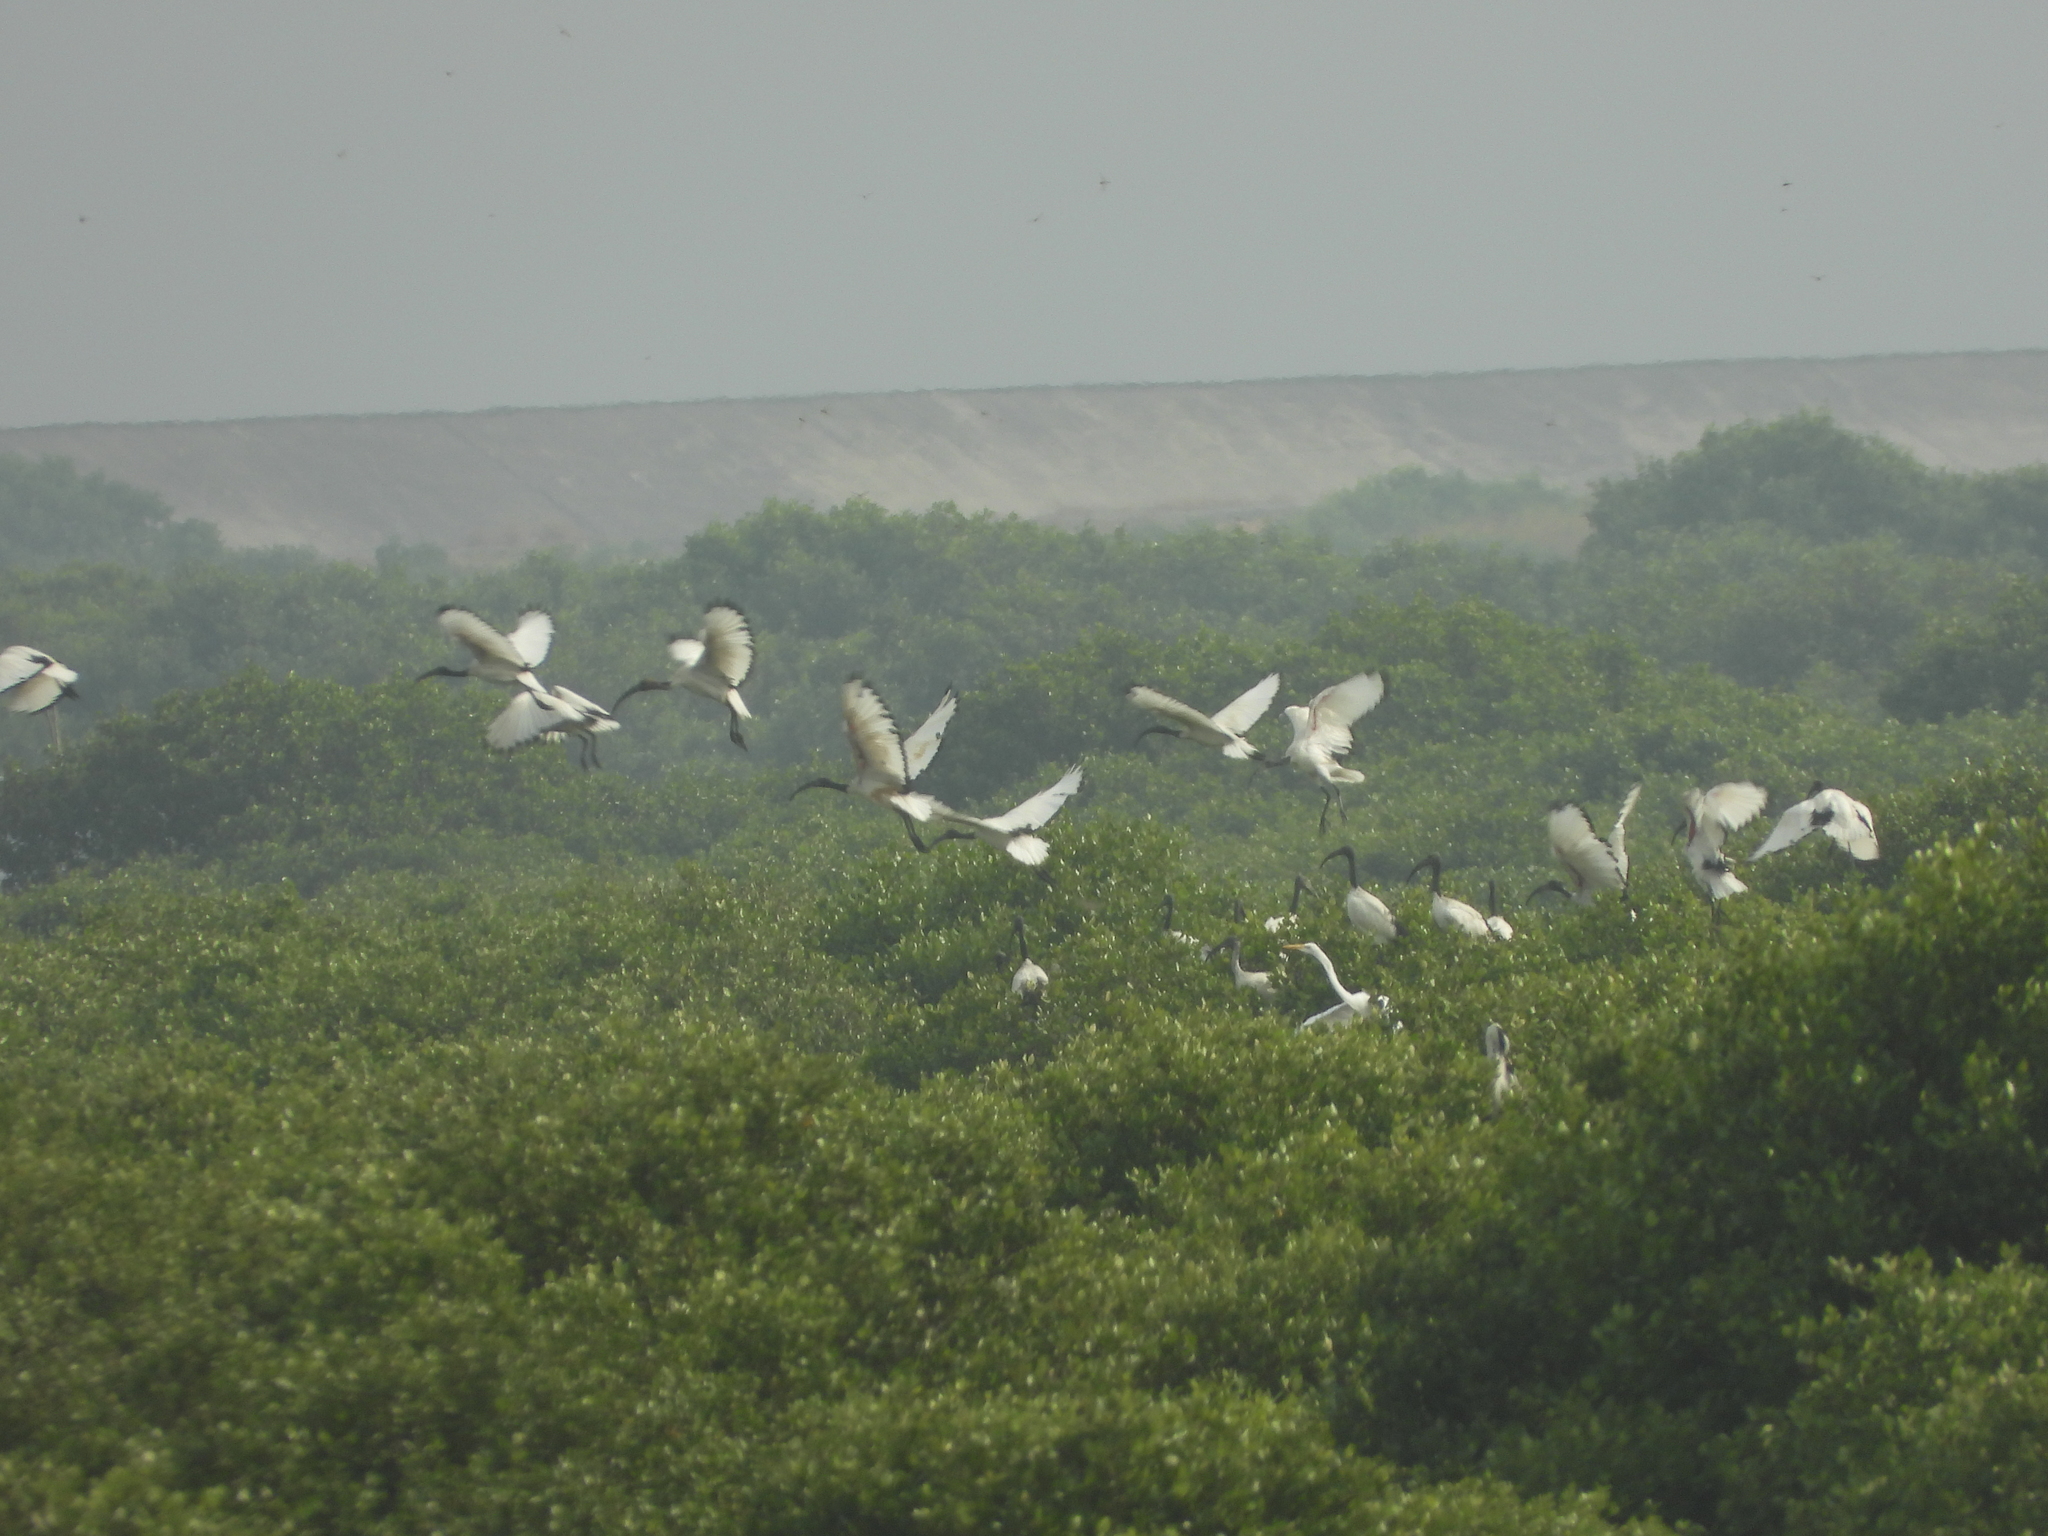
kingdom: Animalia
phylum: Chordata
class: Aves
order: Pelecaniformes
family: Threskiornithidae
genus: Threskiornis
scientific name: Threskiornis aethiopicus
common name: Sacred ibis
